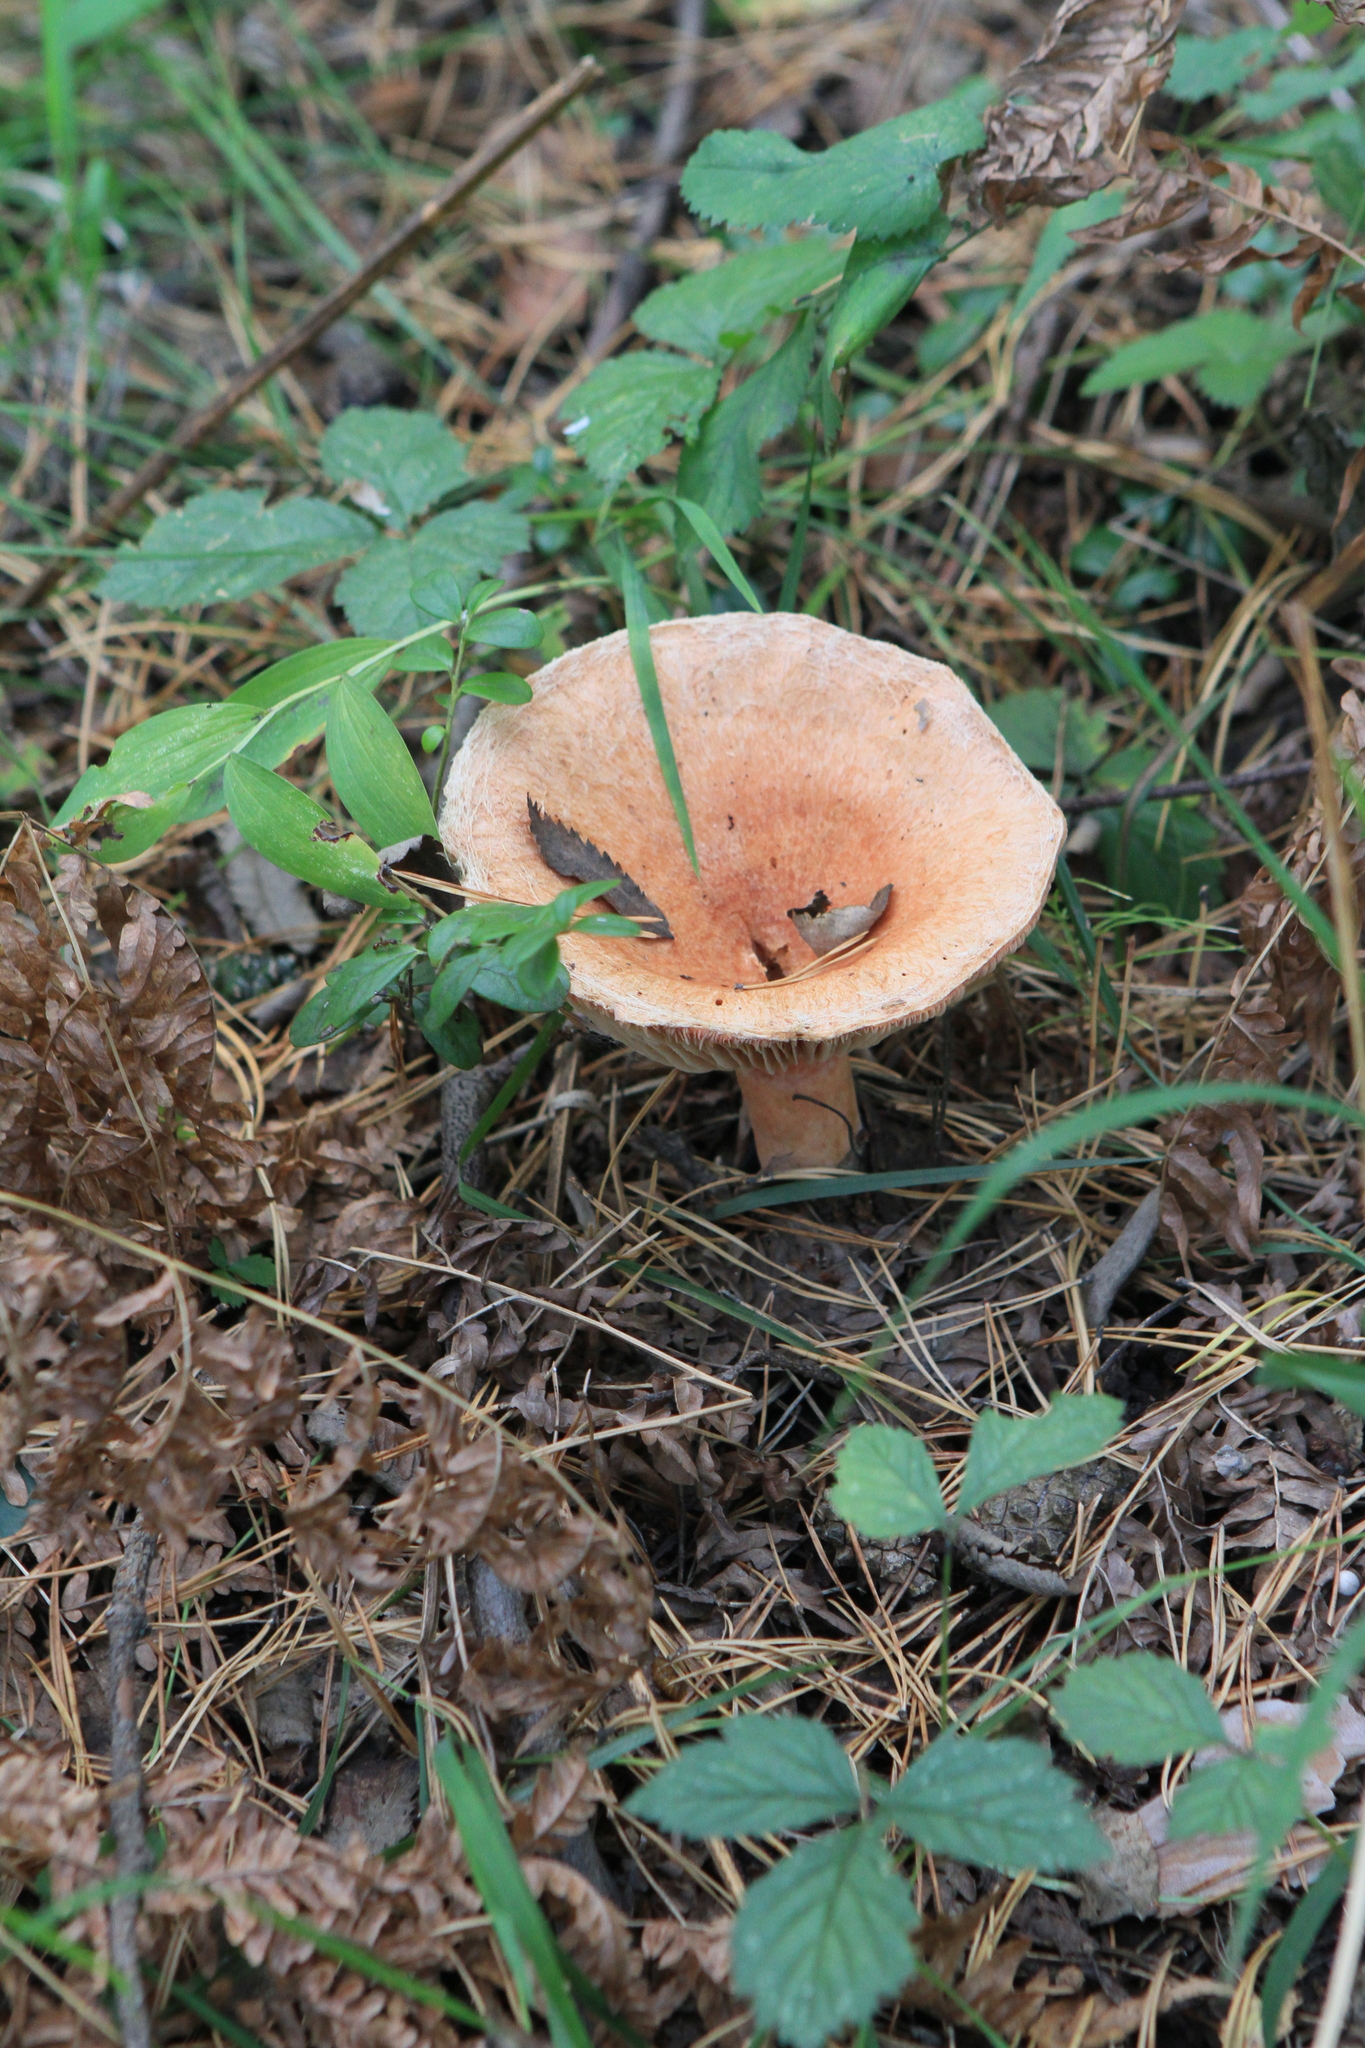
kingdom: Fungi
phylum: Basidiomycota
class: Agaricomycetes
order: Russulales
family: Russulaceae
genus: Lactarius
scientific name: Lactarius torminosus
